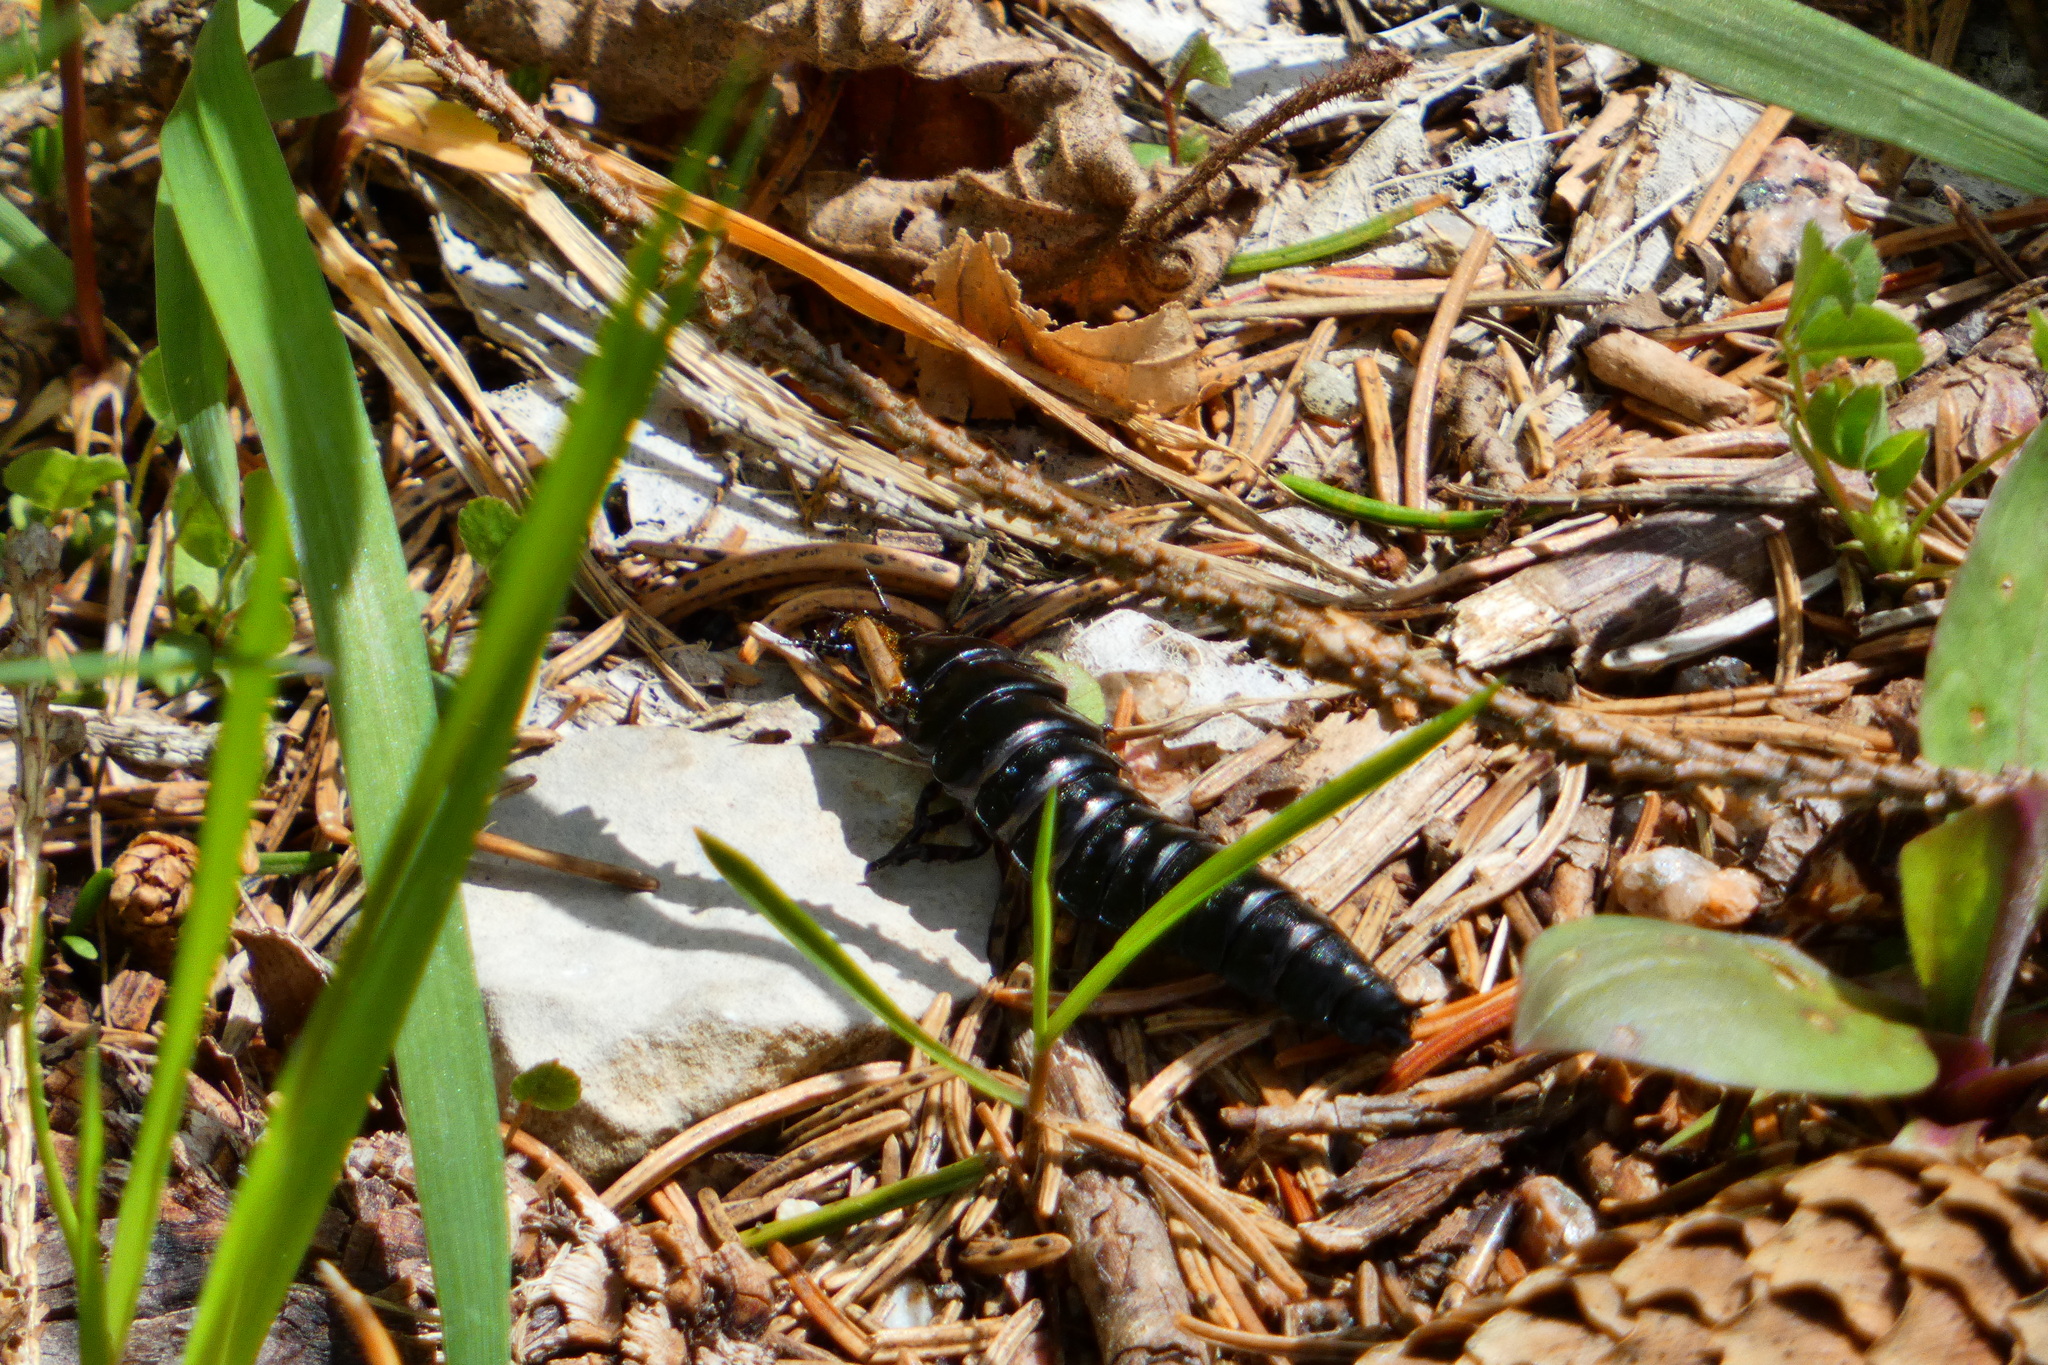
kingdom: Animalia
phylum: Arthropoda
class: Insecta
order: Coleoptera
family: Carabidae
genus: Carabus
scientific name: Carabus
